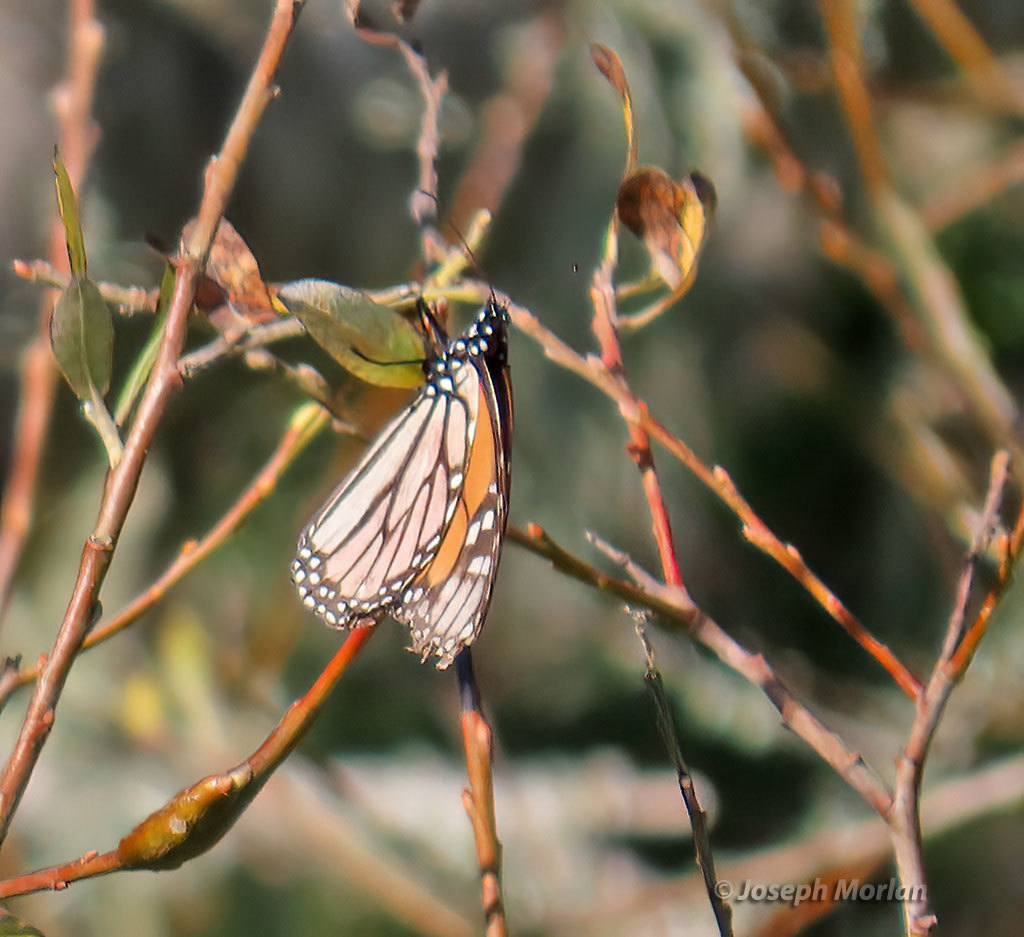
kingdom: Animalia
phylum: Arthropoda
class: Insecta
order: Lepidoptera
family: Nymphalidae
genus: Danaus
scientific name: Danaus plexippus
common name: Monarch
